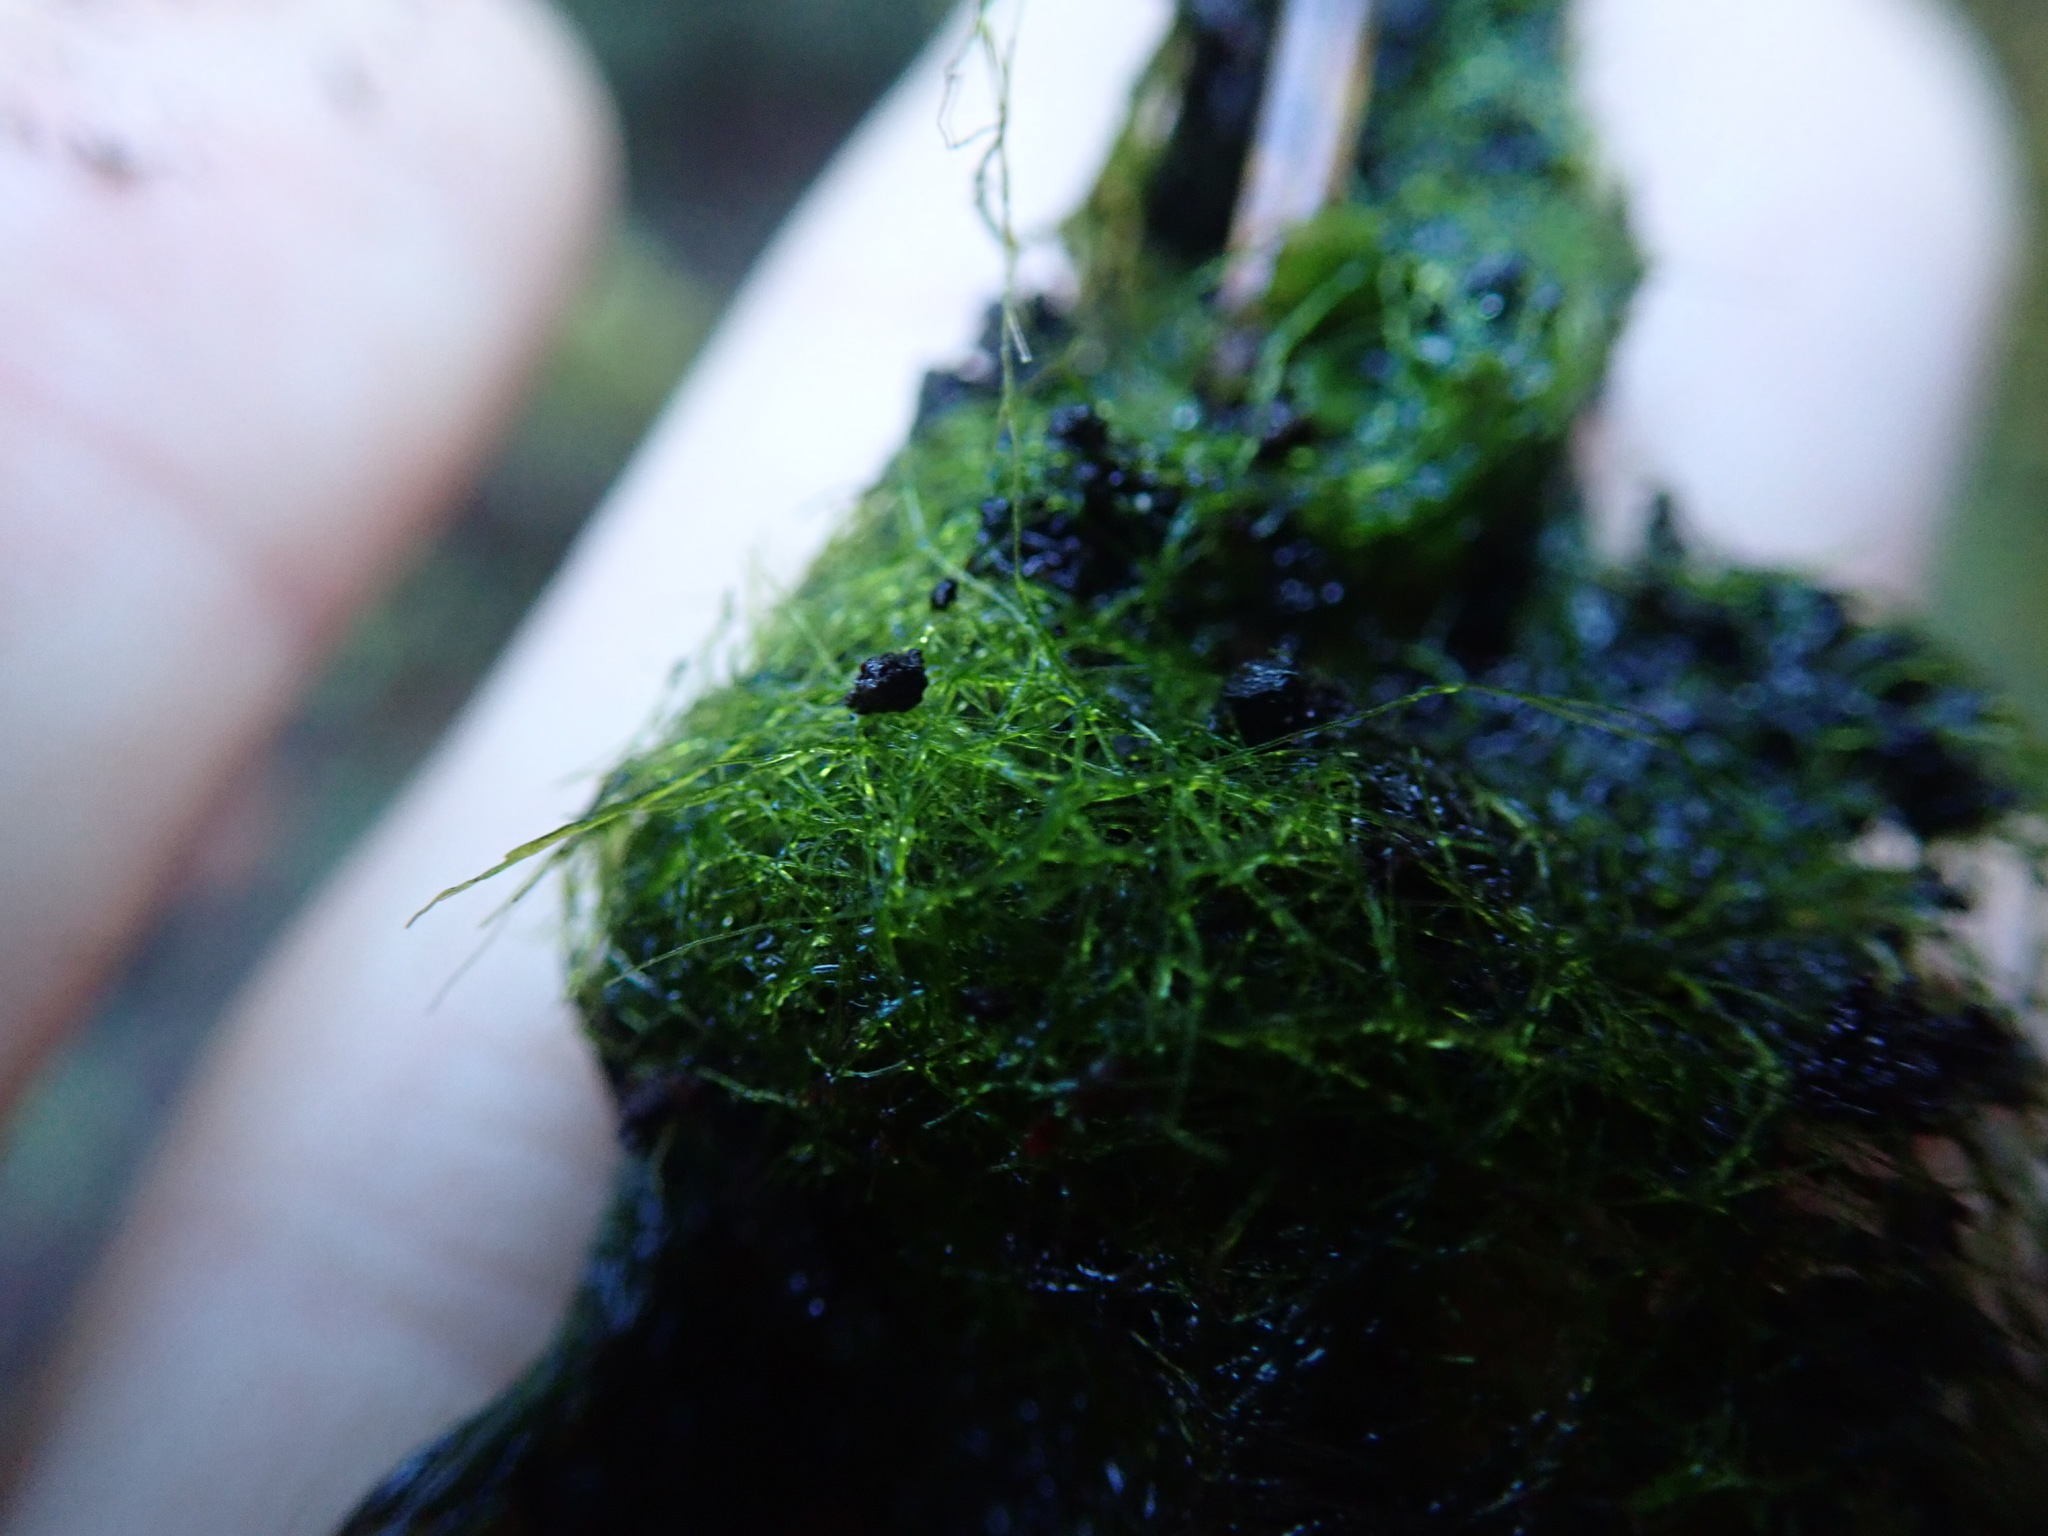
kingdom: Chromista
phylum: Ochrophyta
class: Xanthophyceae
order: Vaucheriales
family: Vaucheriaceae
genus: Vaucheria
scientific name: Vaucheria
